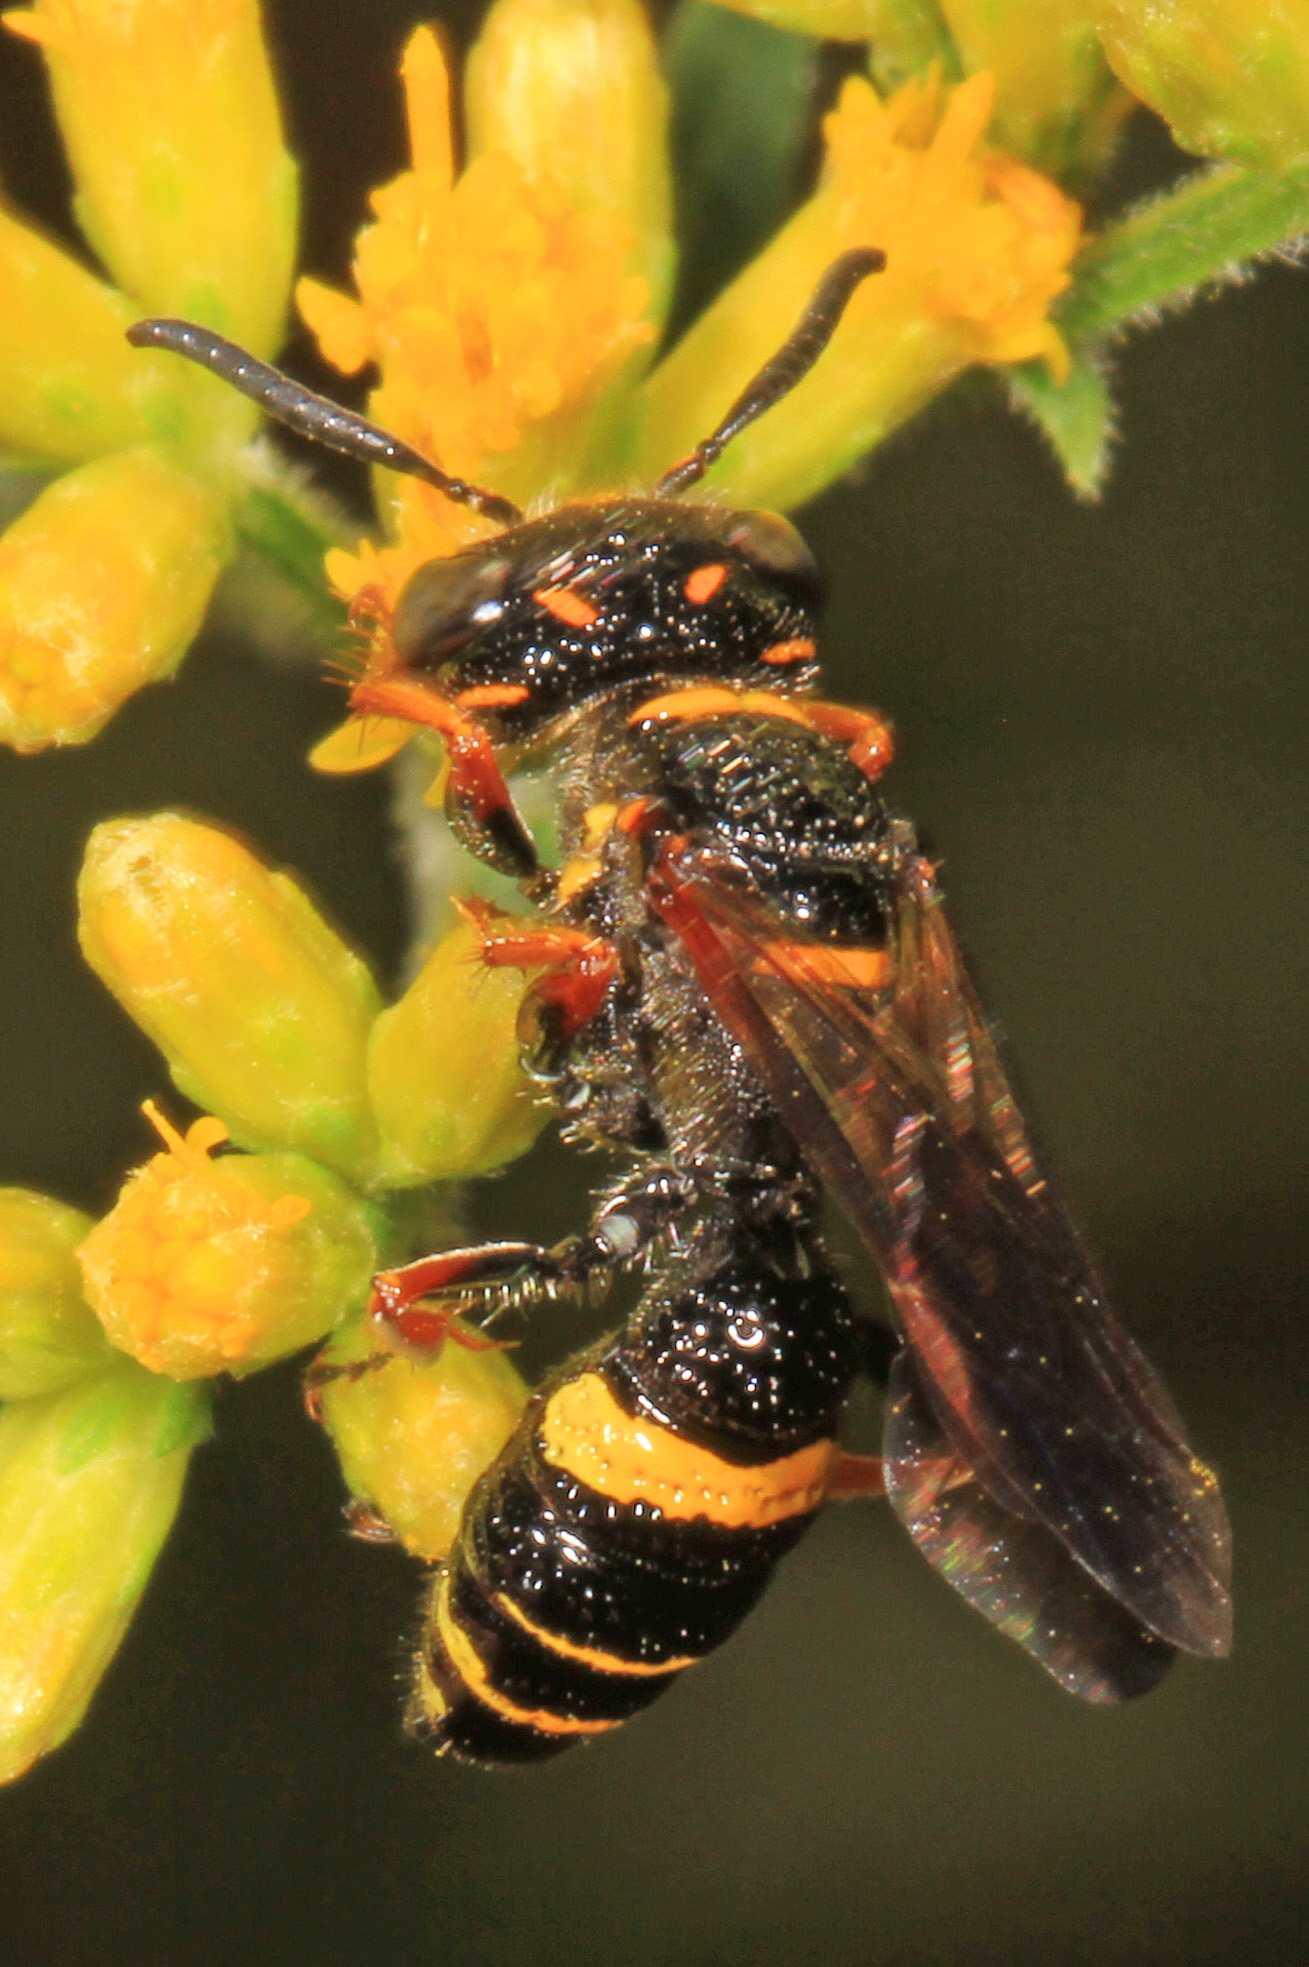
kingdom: Animalia
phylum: Arthropoda
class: Insecta
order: Hymenoptera
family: Crabronidae
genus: Philanthus
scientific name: Philanthus gibbosus
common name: Humped beewolf
